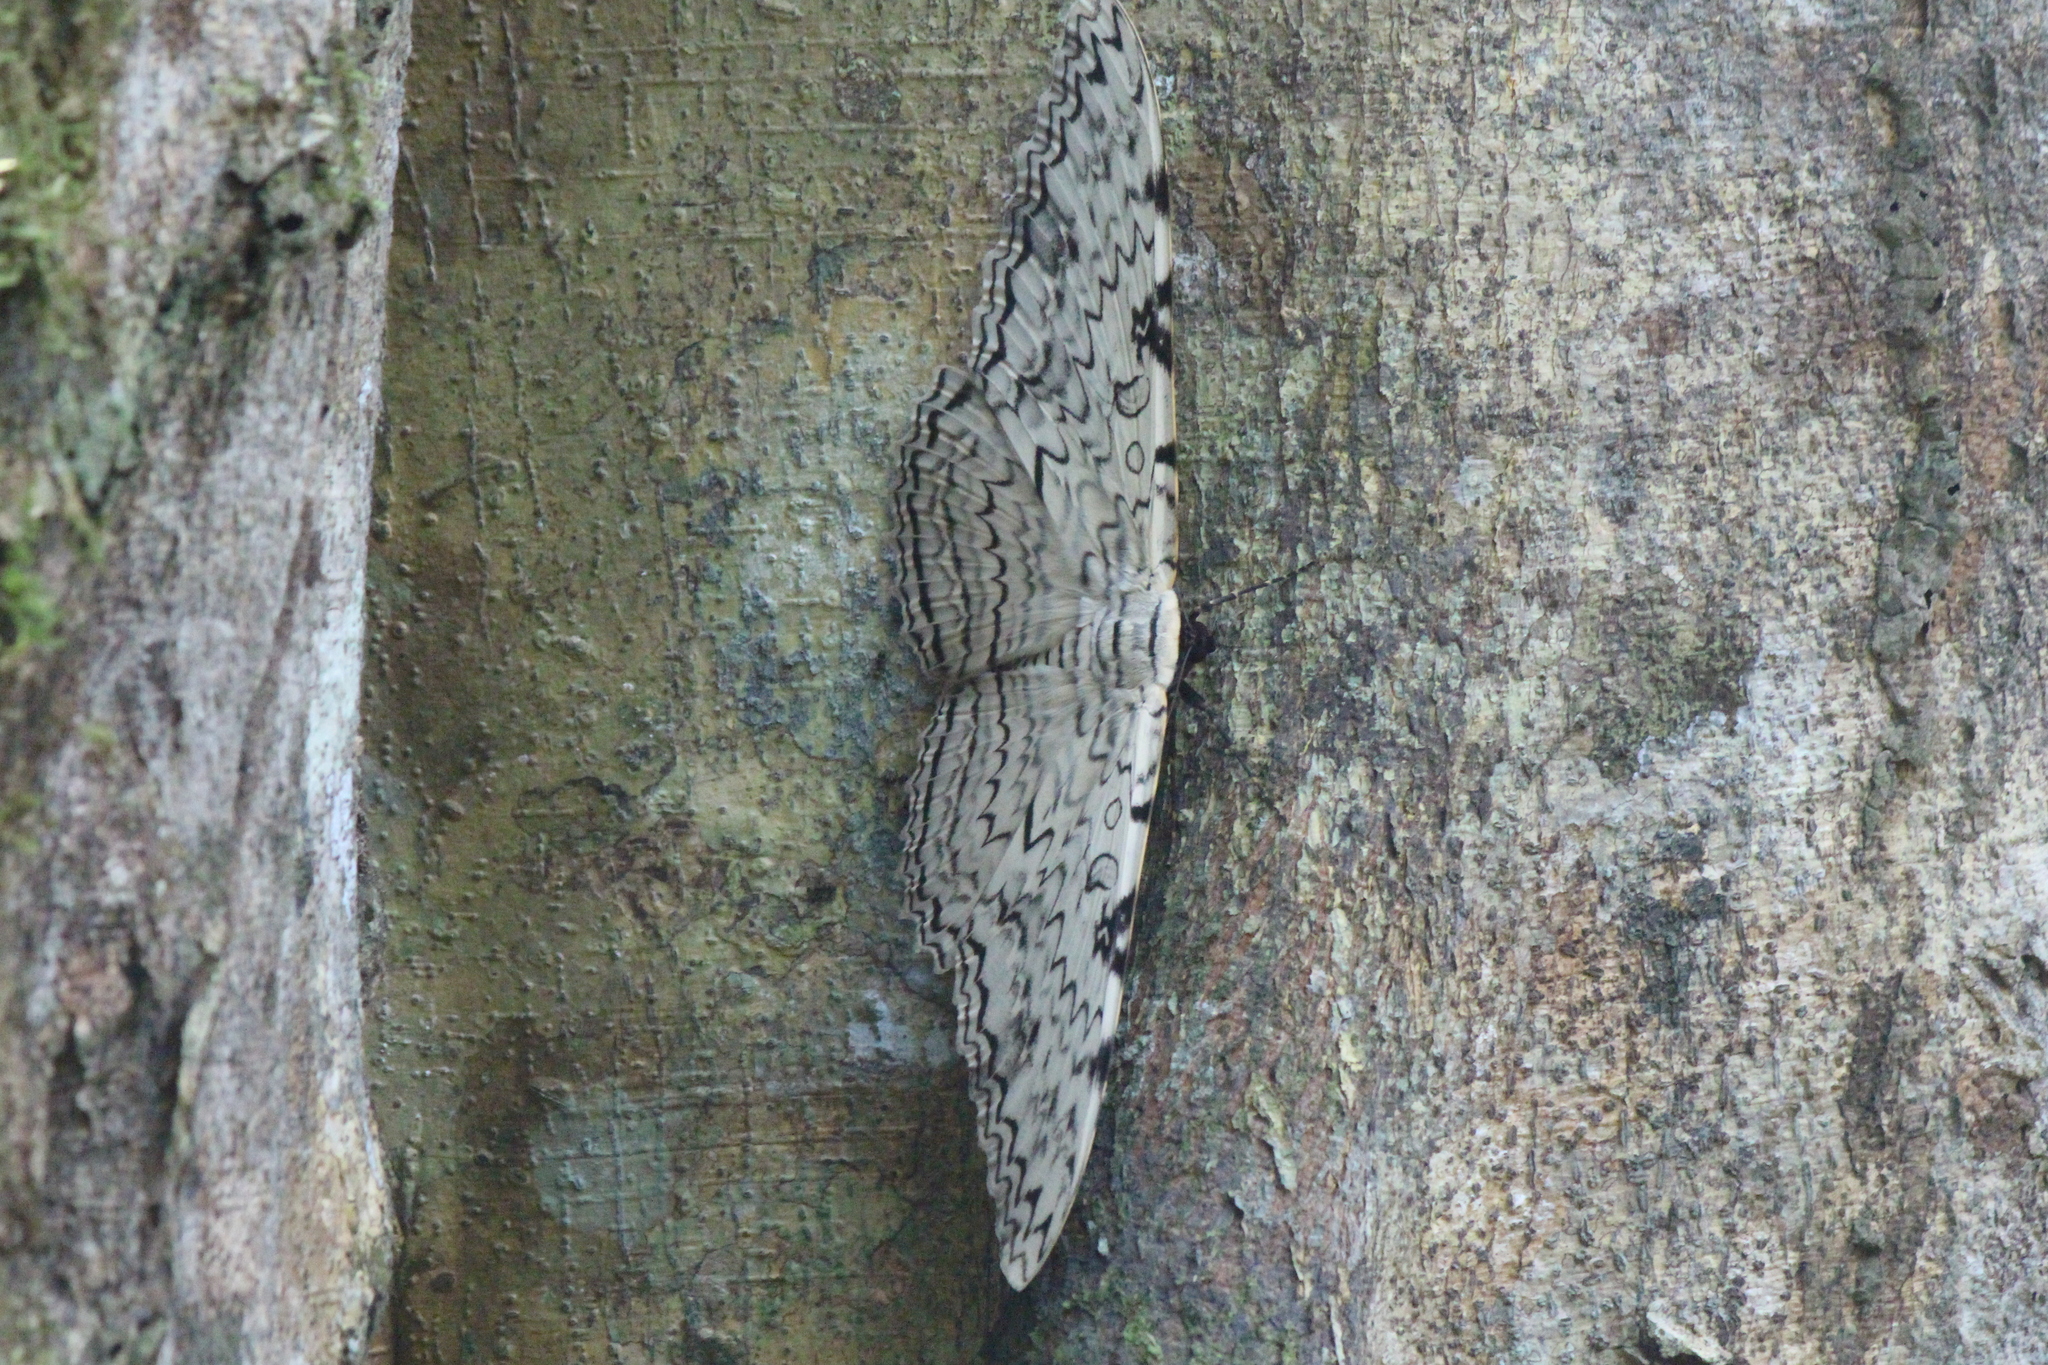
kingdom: Animalia
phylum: Arthropoda
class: Insecta
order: Lepidoptera
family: Erebidae
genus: Thysania
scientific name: Thysania agrippina
